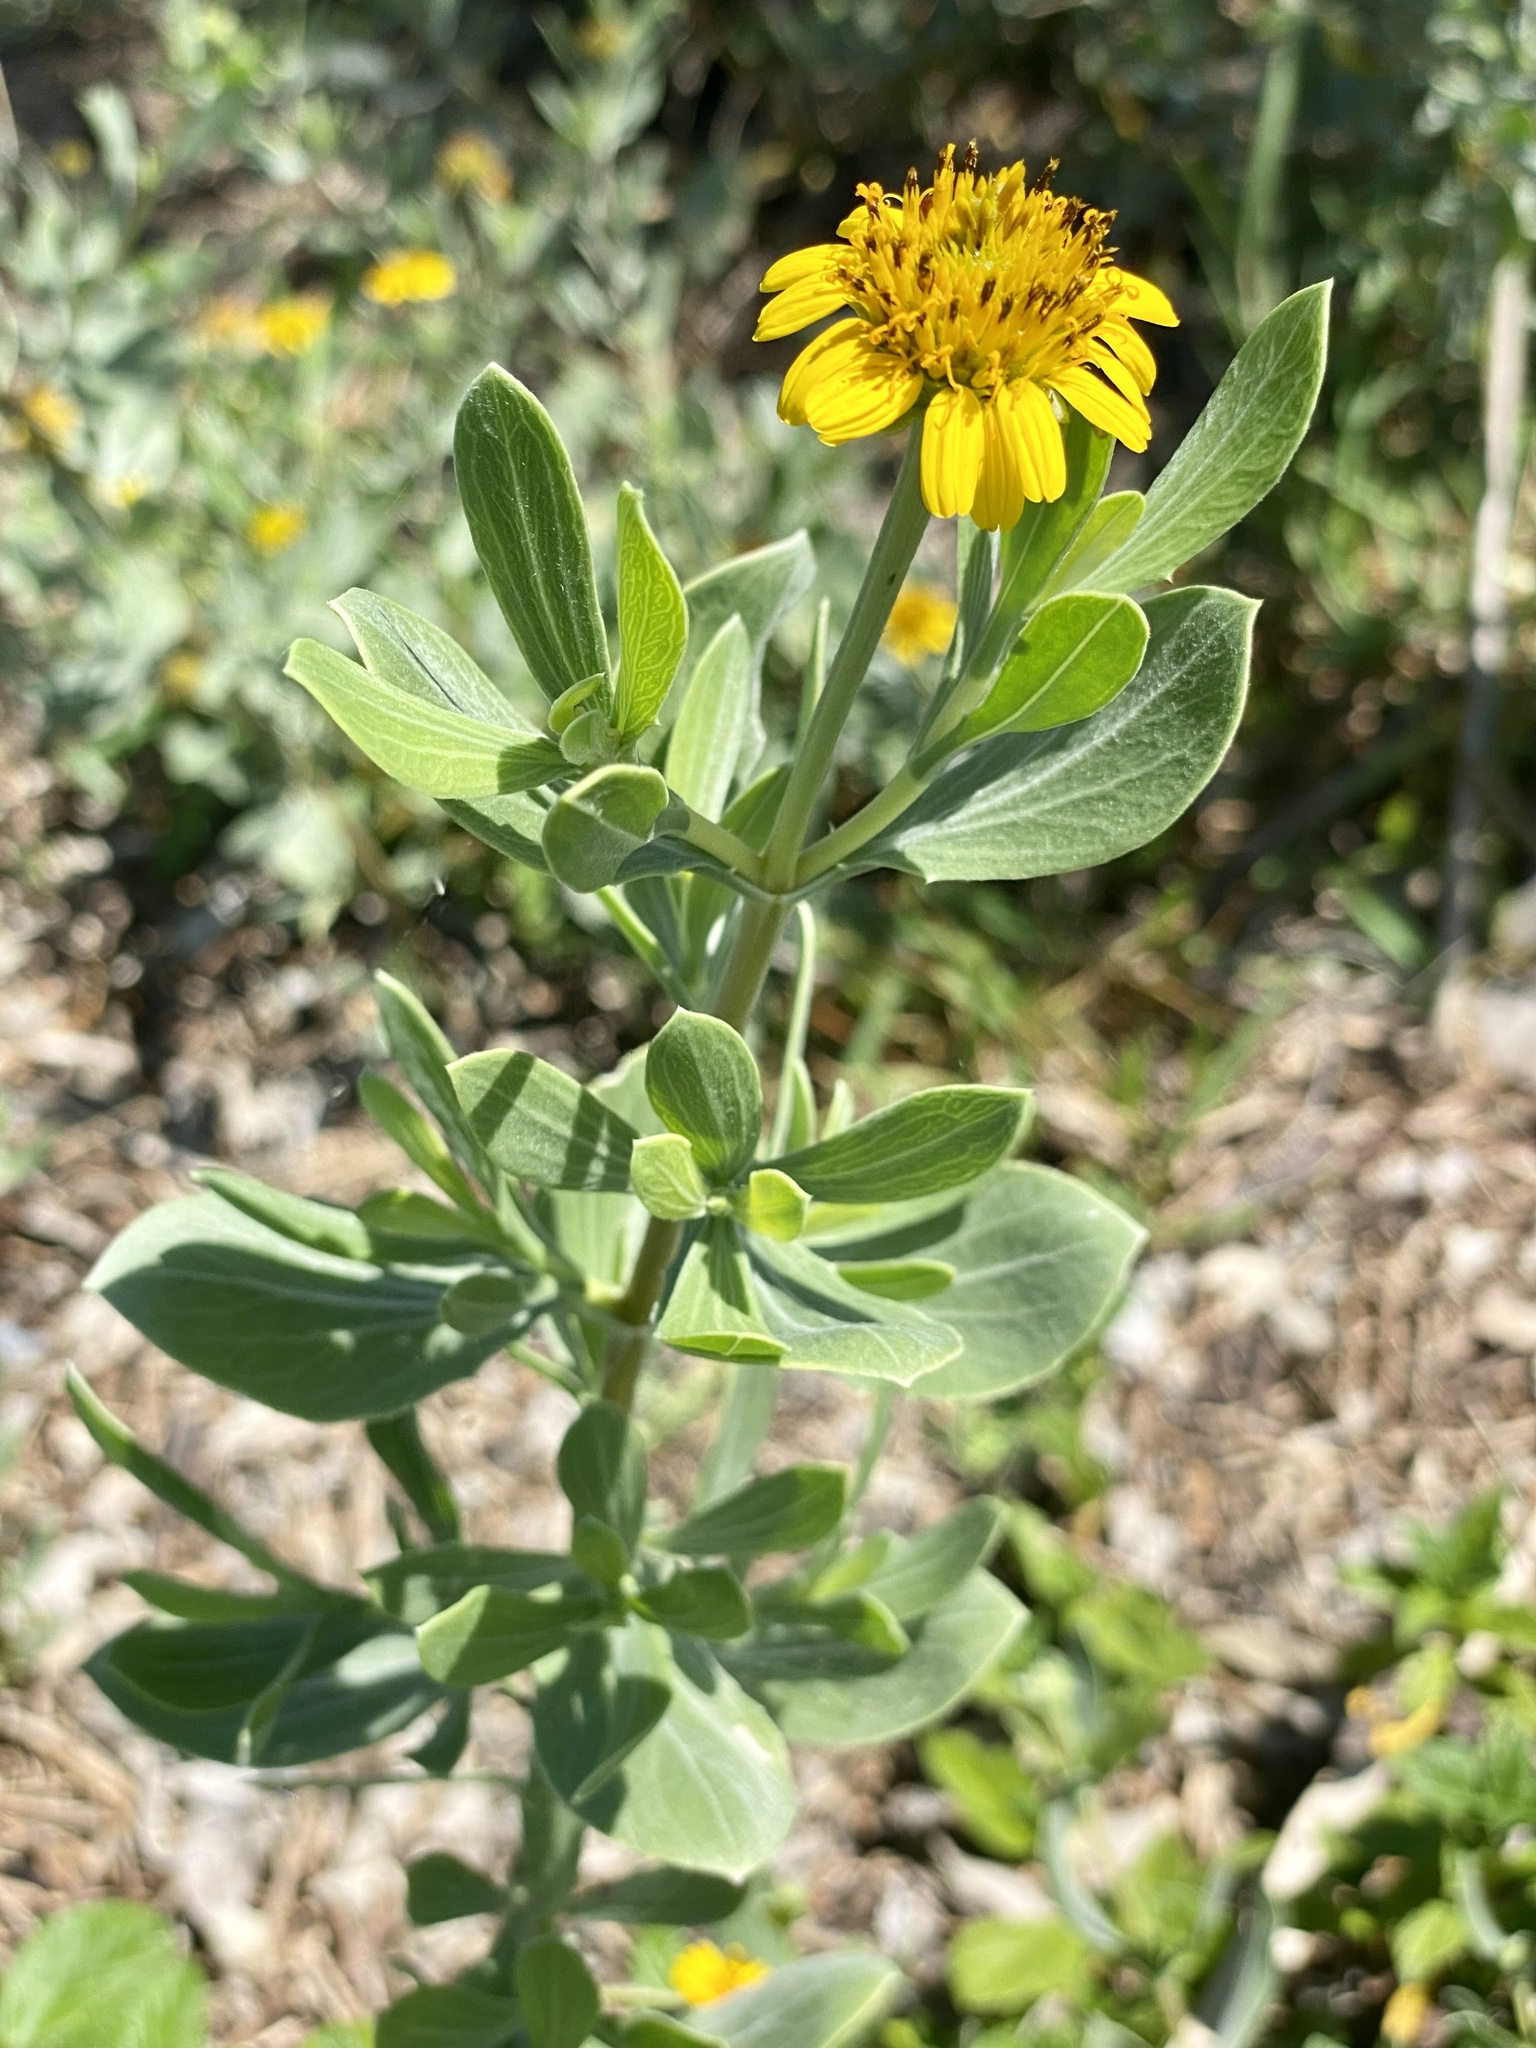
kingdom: Plantae
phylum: Tracheophyta
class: Magnoliopsida
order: Asterales
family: Asteraceae
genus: Borrichia
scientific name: Borrichia frutescens
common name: Sea oxeye
